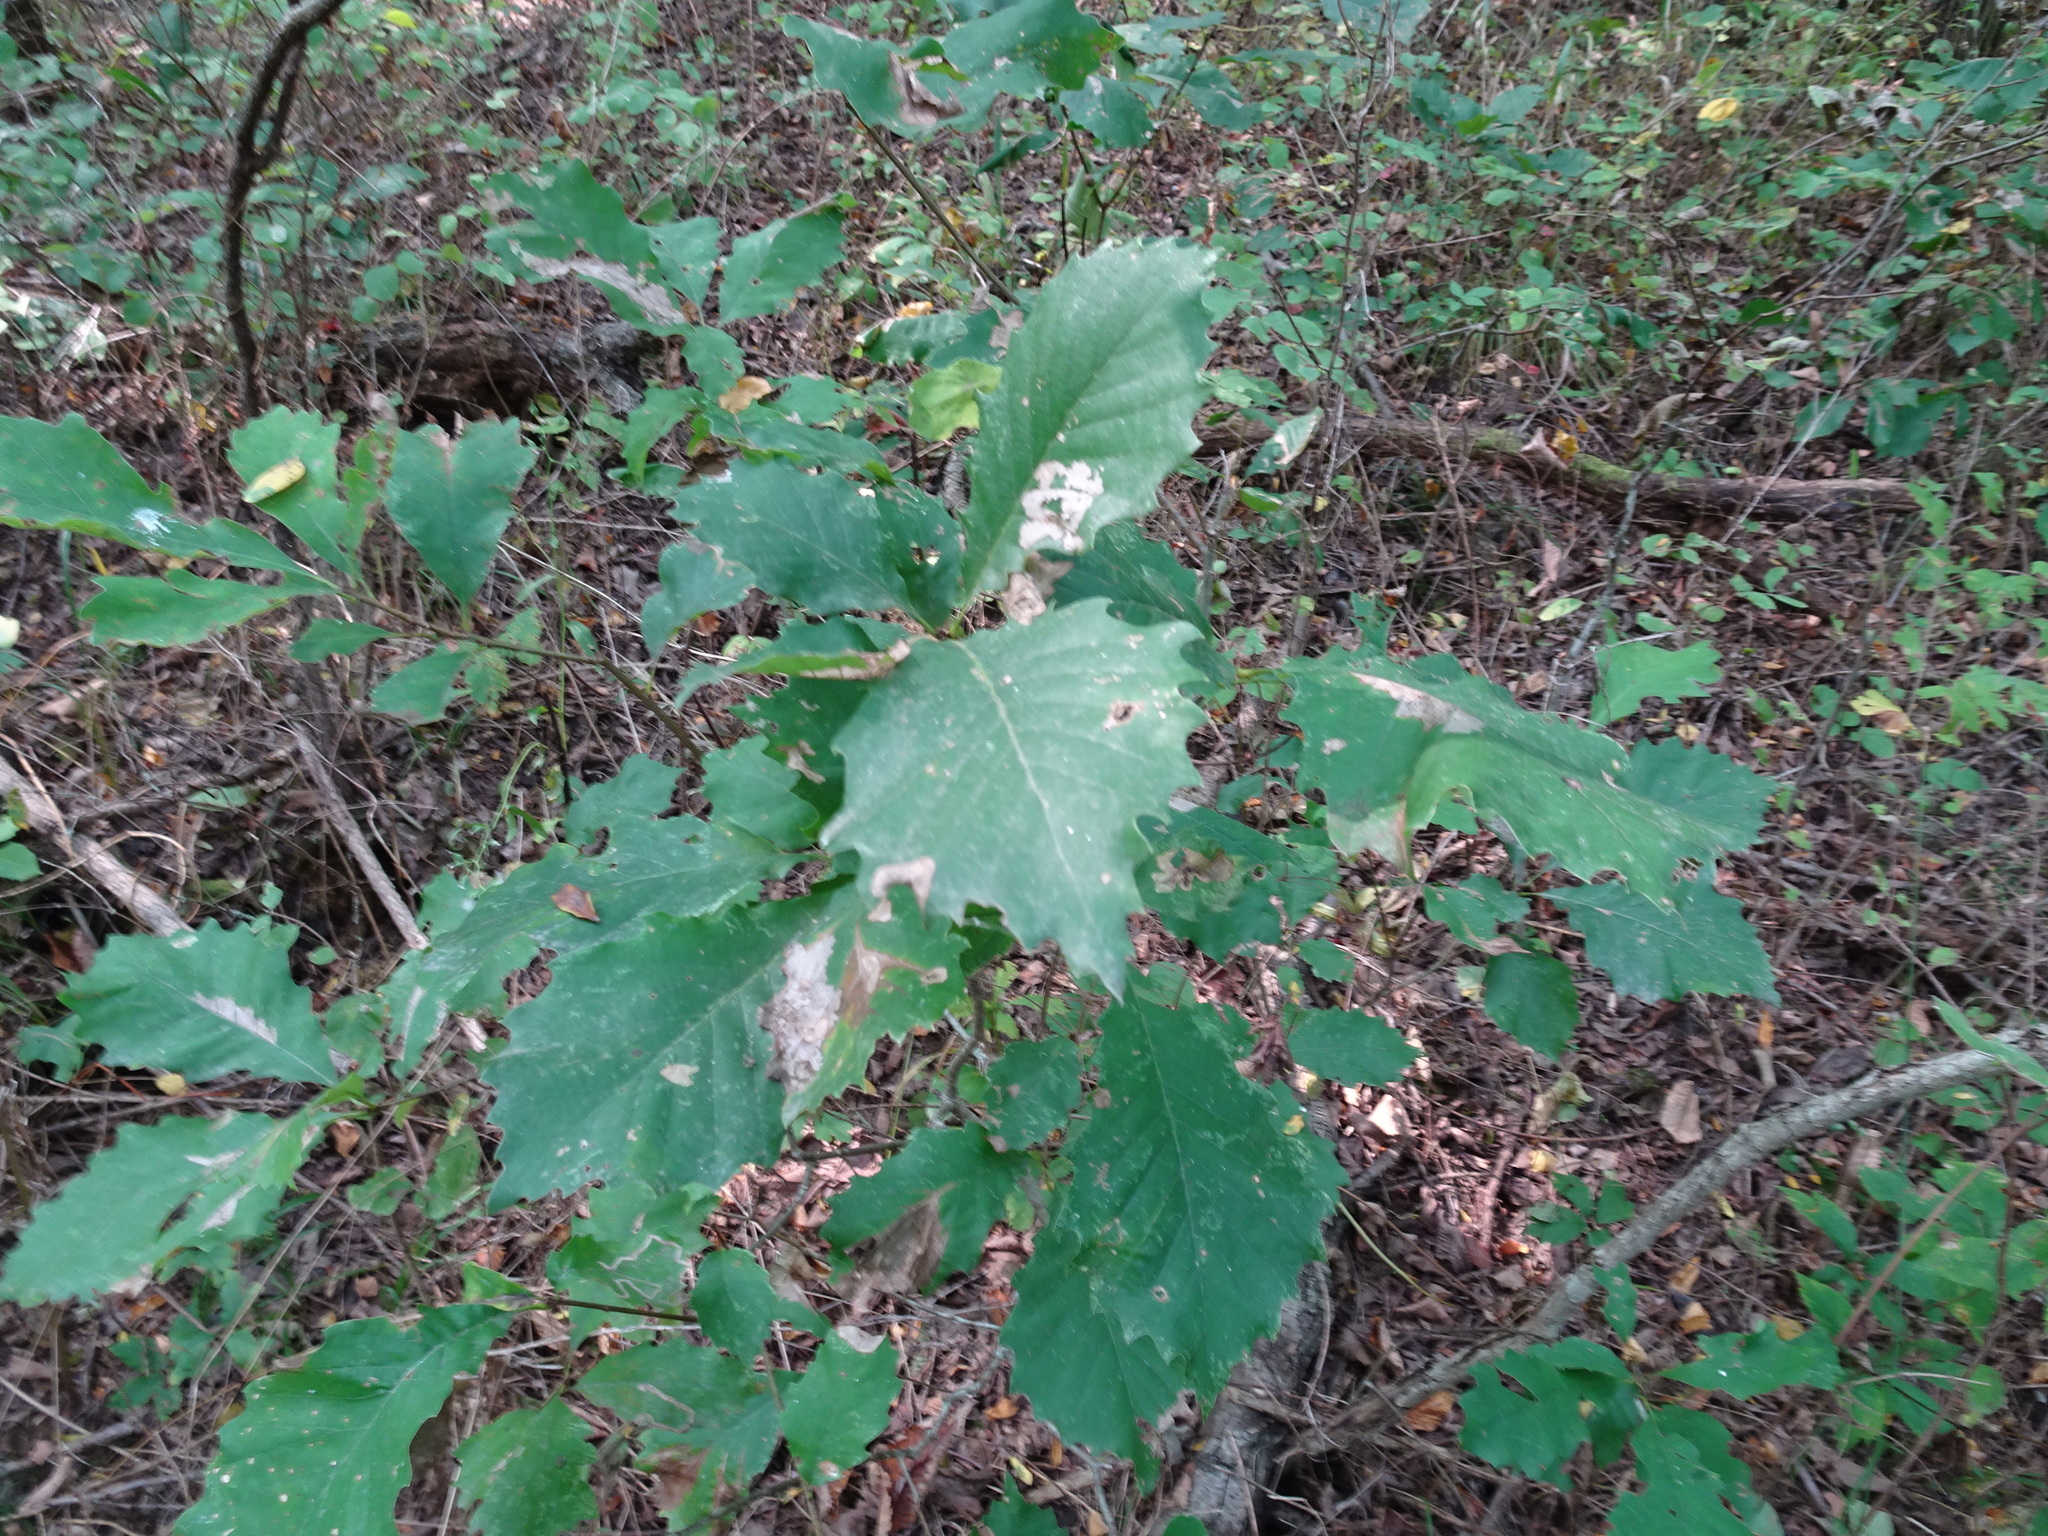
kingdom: Plantae
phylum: Tracheophyta
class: Magnoliopsida
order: Fagales
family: Fagaceae
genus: Quercus
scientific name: Quercus muehlenbergii
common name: Chinkapin oak
